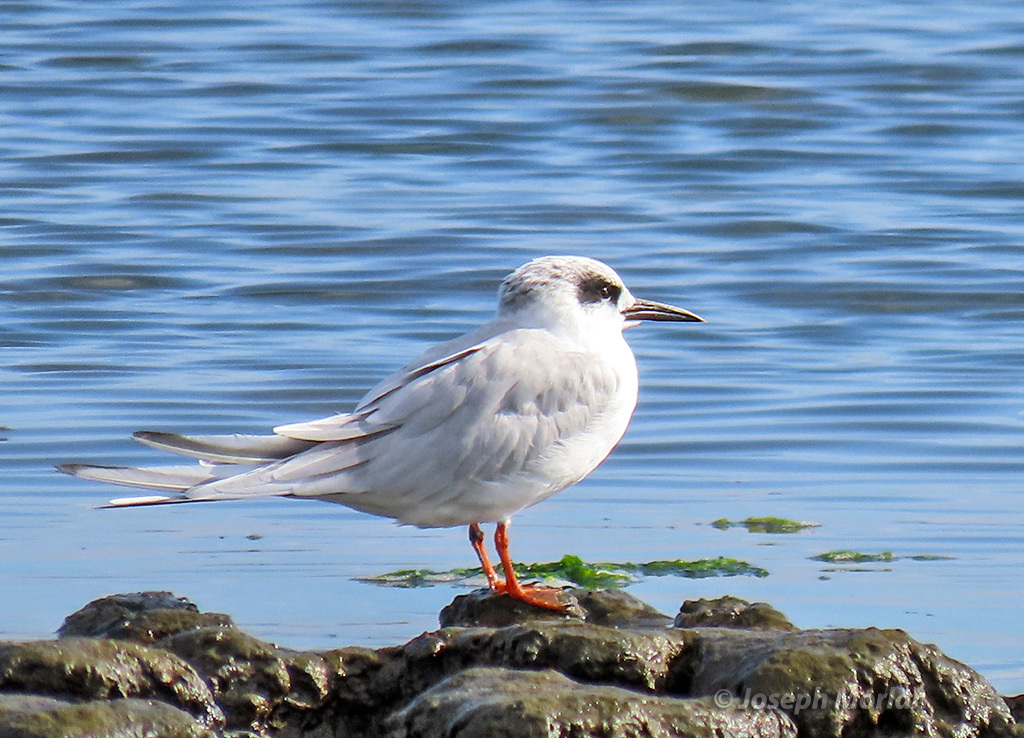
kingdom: Animalia
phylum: Chordata
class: Aves
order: Charadriiformes
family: Laridae
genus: Sterna
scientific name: Sterna forsteri
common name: Forster's tern
